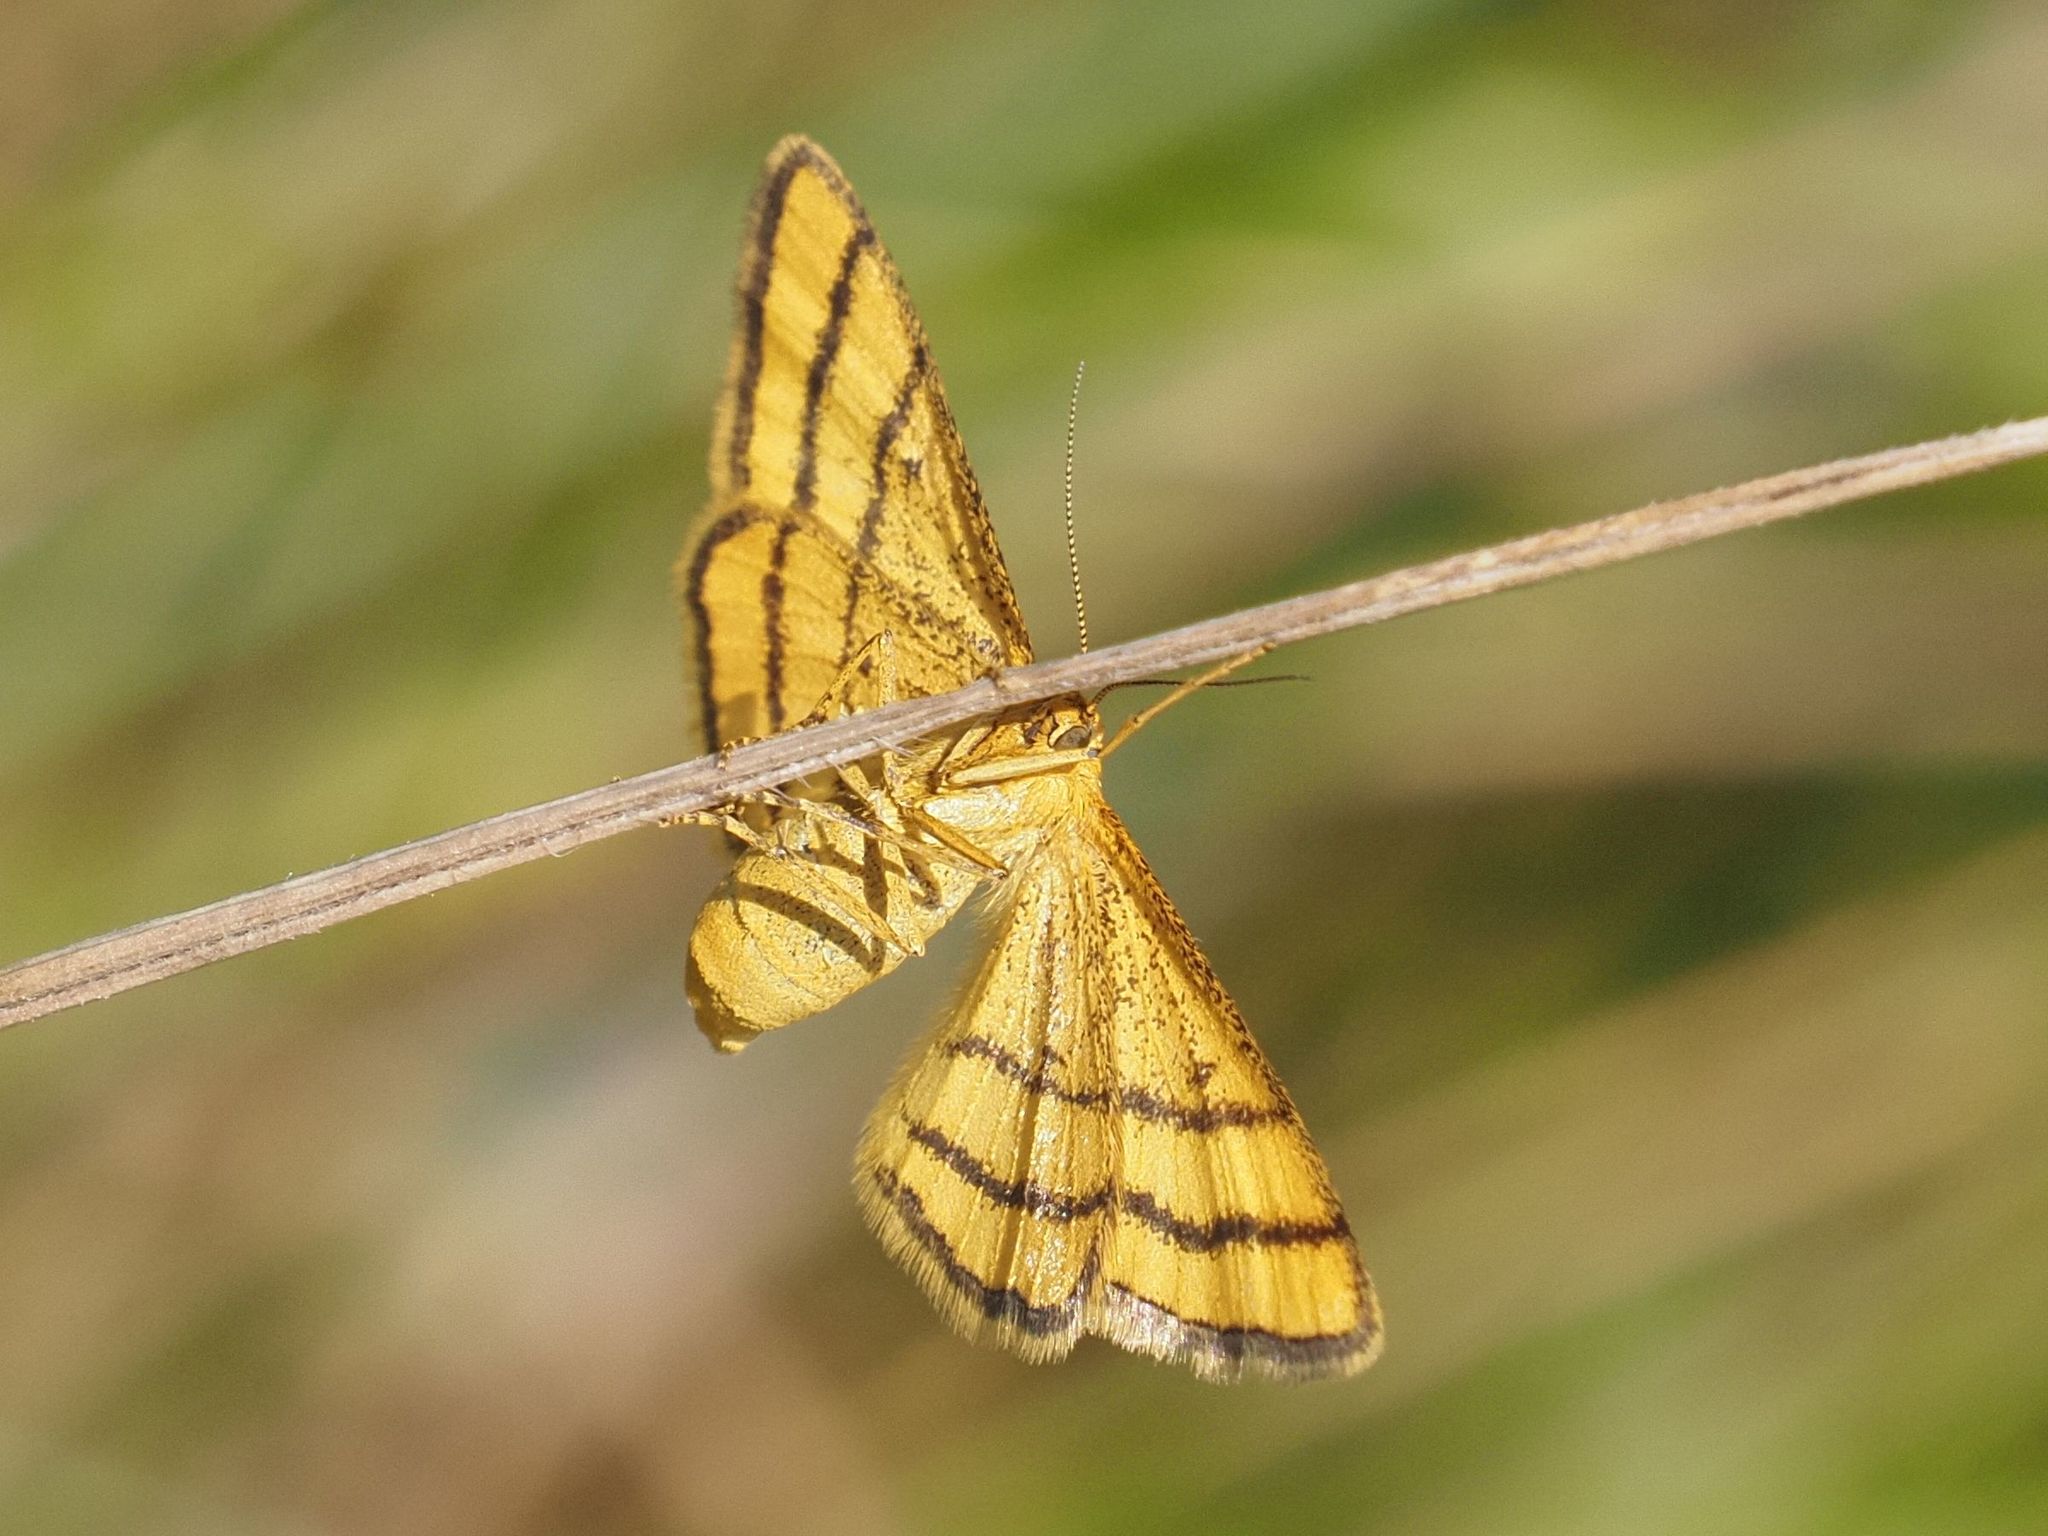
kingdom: Animalia
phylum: Arthropoda
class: Insecta
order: Lepidoptera
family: Geometridae
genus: Idaea
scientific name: Idaea aureolaria
